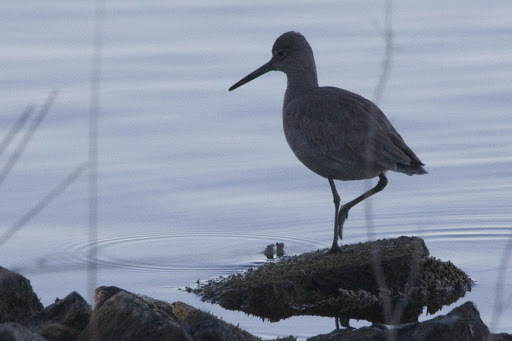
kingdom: Animalia
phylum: Chordata
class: Aves
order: Charadriiformes
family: Scolopacidae
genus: Tringa
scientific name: Tringa semipalmata
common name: Willet
